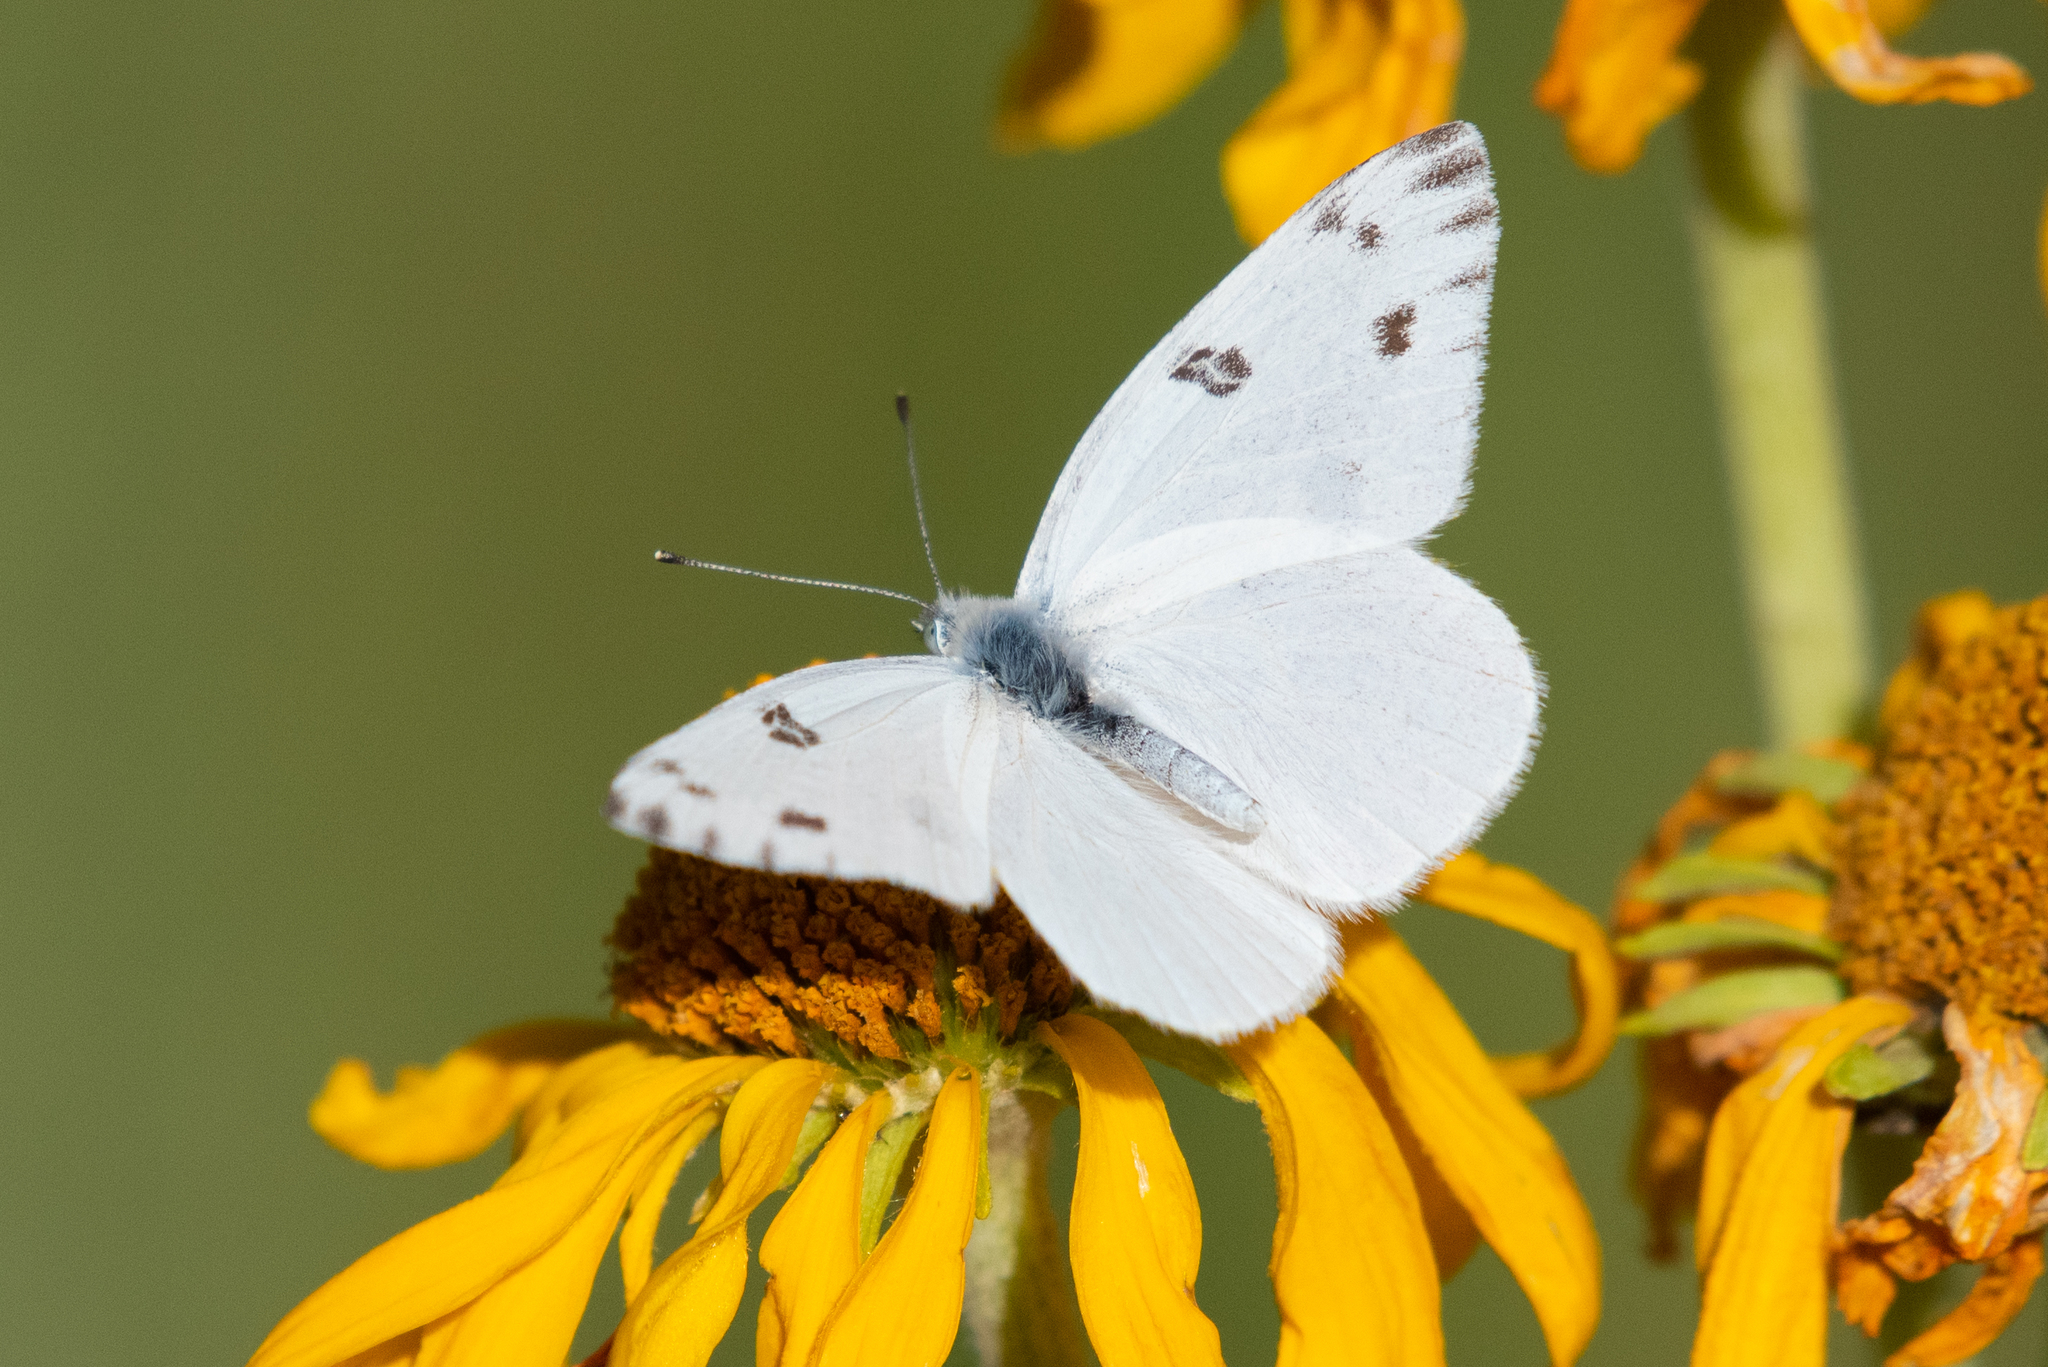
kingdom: Animalia
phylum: Arthropoda
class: Insecta
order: Lepidoptera
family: Pieridae
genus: Pontia
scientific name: Pontia protodice
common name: Checkered white
